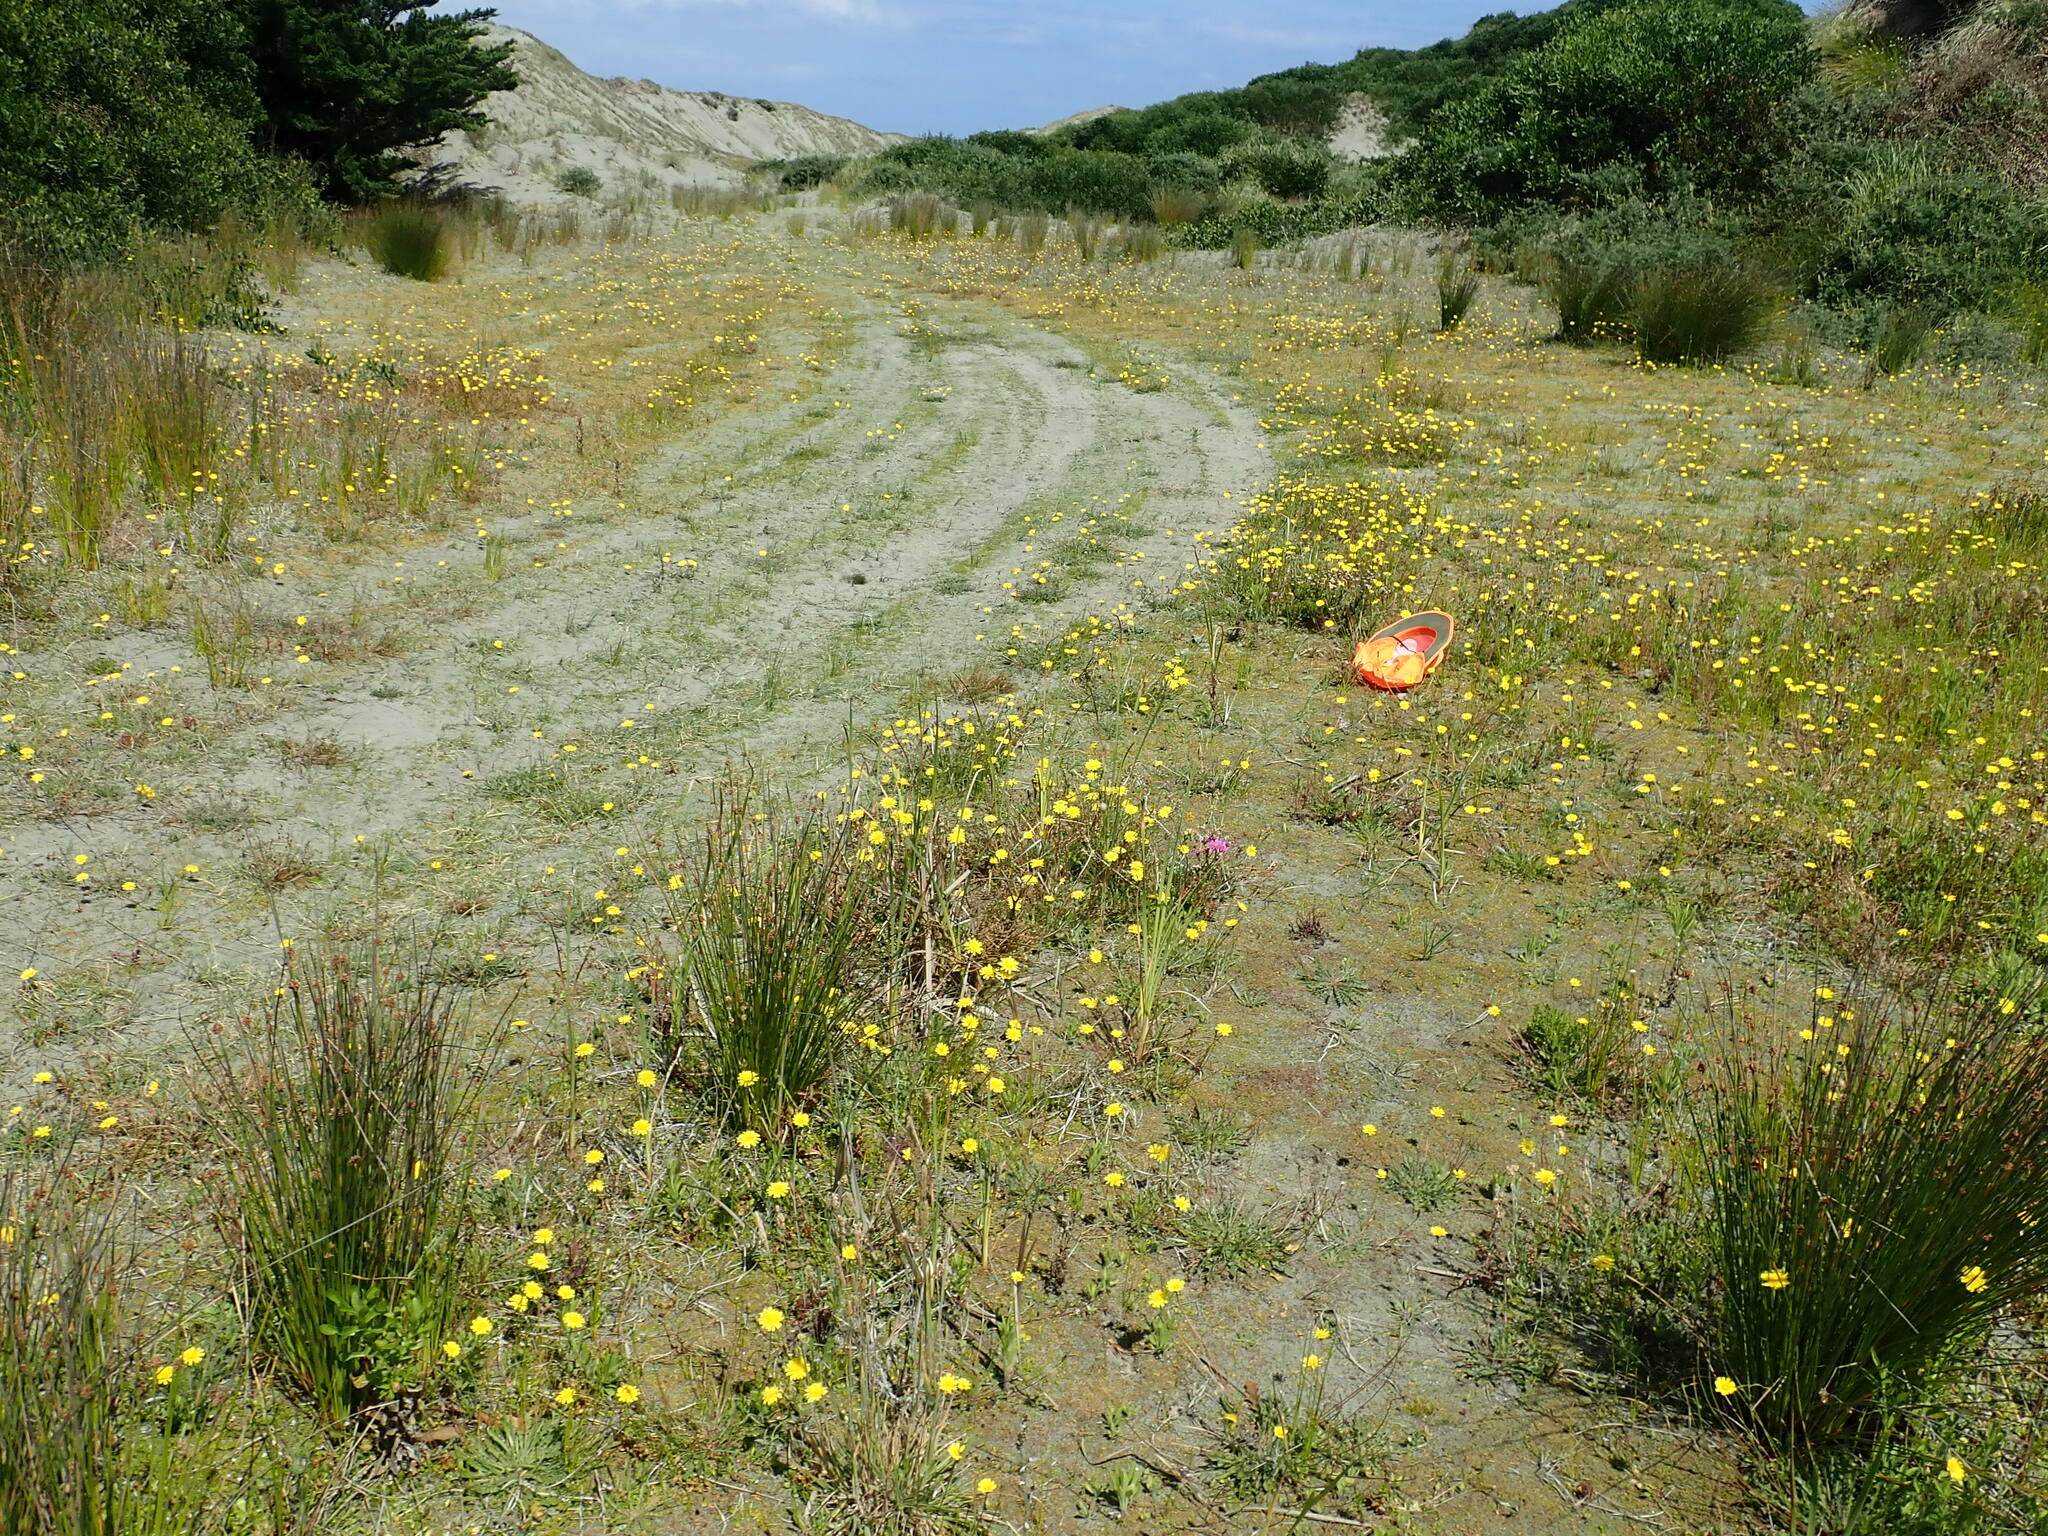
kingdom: Plantae
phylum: Tracheophyta
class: Magnoliopsida
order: Apiales
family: Apiaceae
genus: Lilaeopsis
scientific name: Lilaeopsis novae-zelandiae
